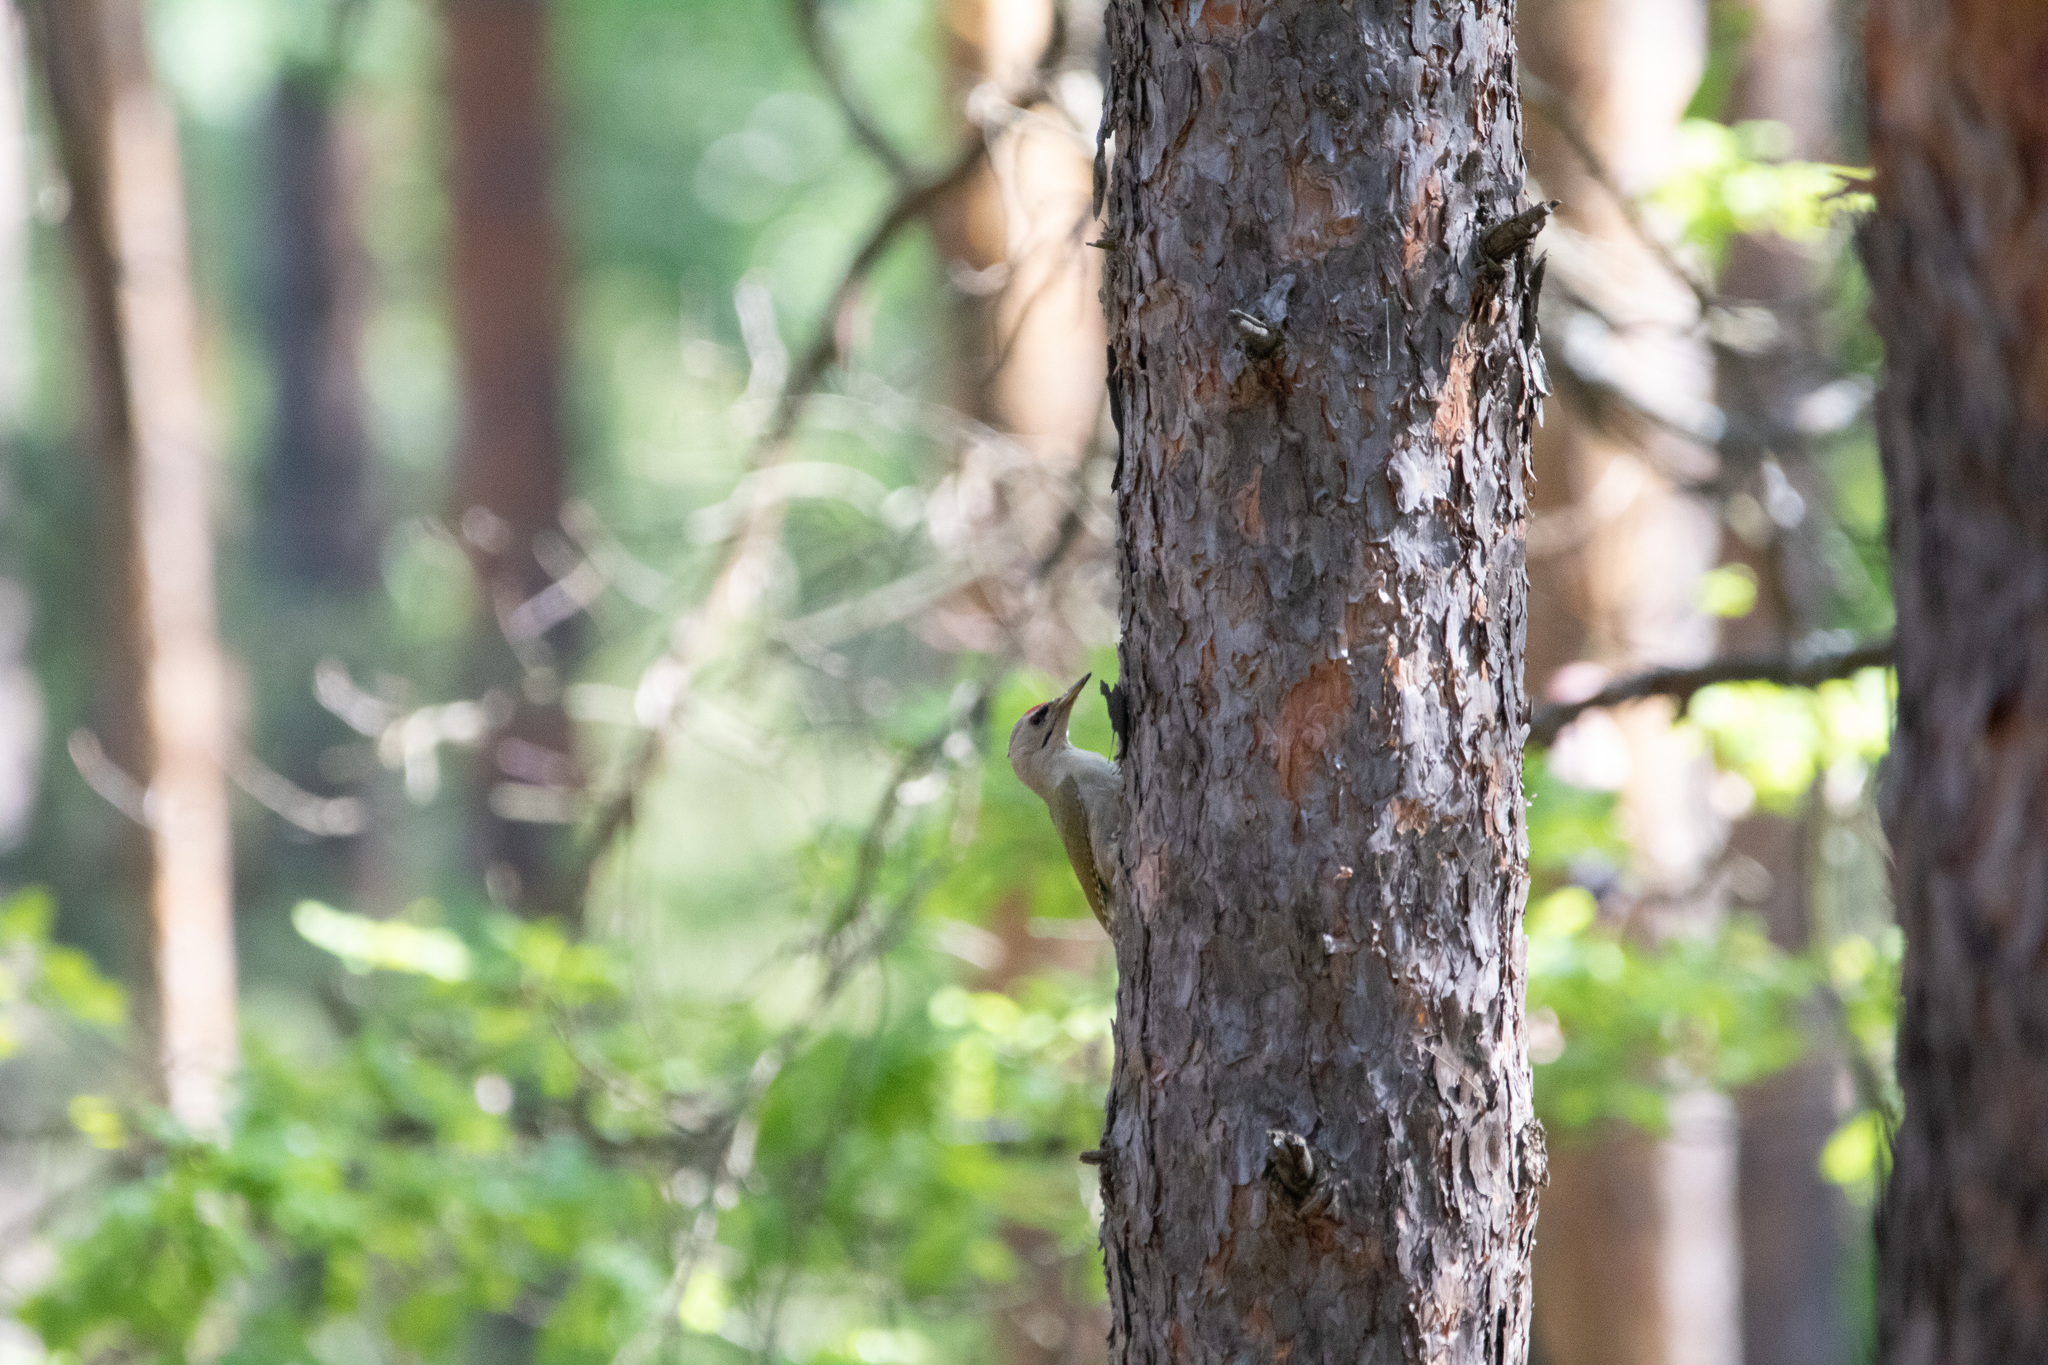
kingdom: Animalia
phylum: Chordata
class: Aves
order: Piciformes
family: Picidae
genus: Picus
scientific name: Picus canus
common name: Grey-headed woodpecker
